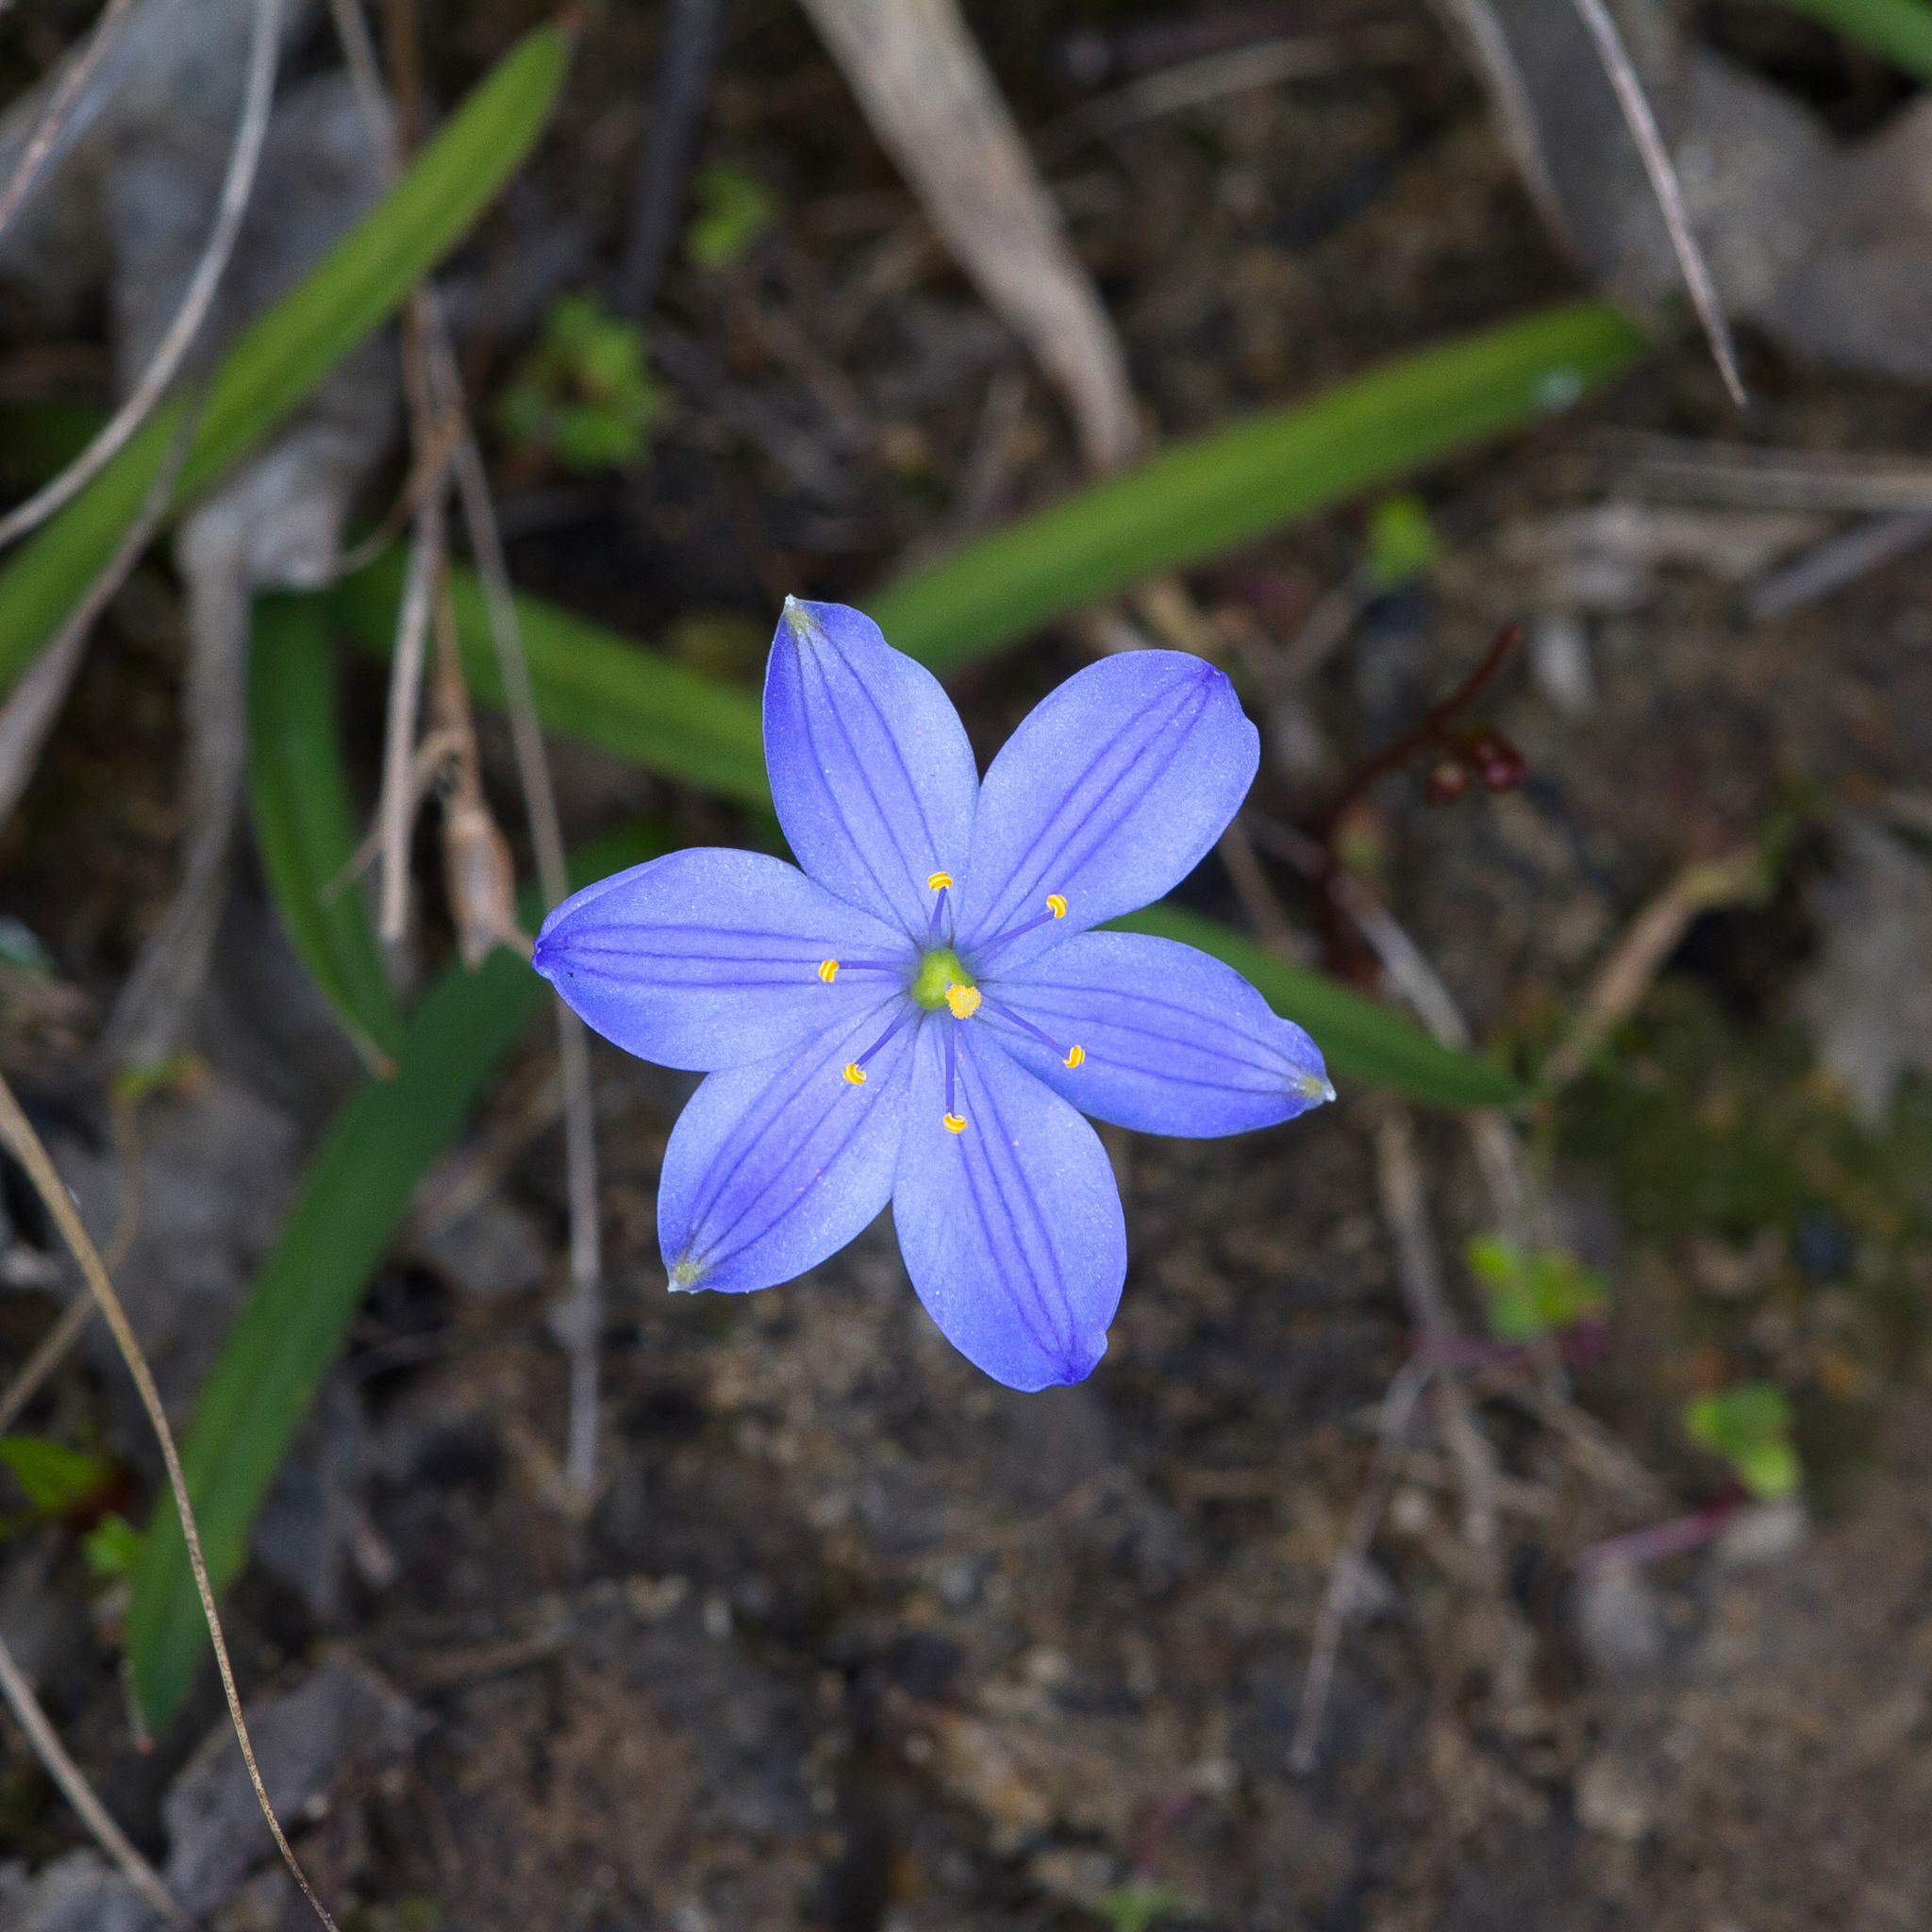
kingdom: Plantae
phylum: Tracheophyta
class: Liliopsida
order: Asparagales
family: Asphodelaceae
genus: Chamaescilla
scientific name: Chamaescilla corymbosa
